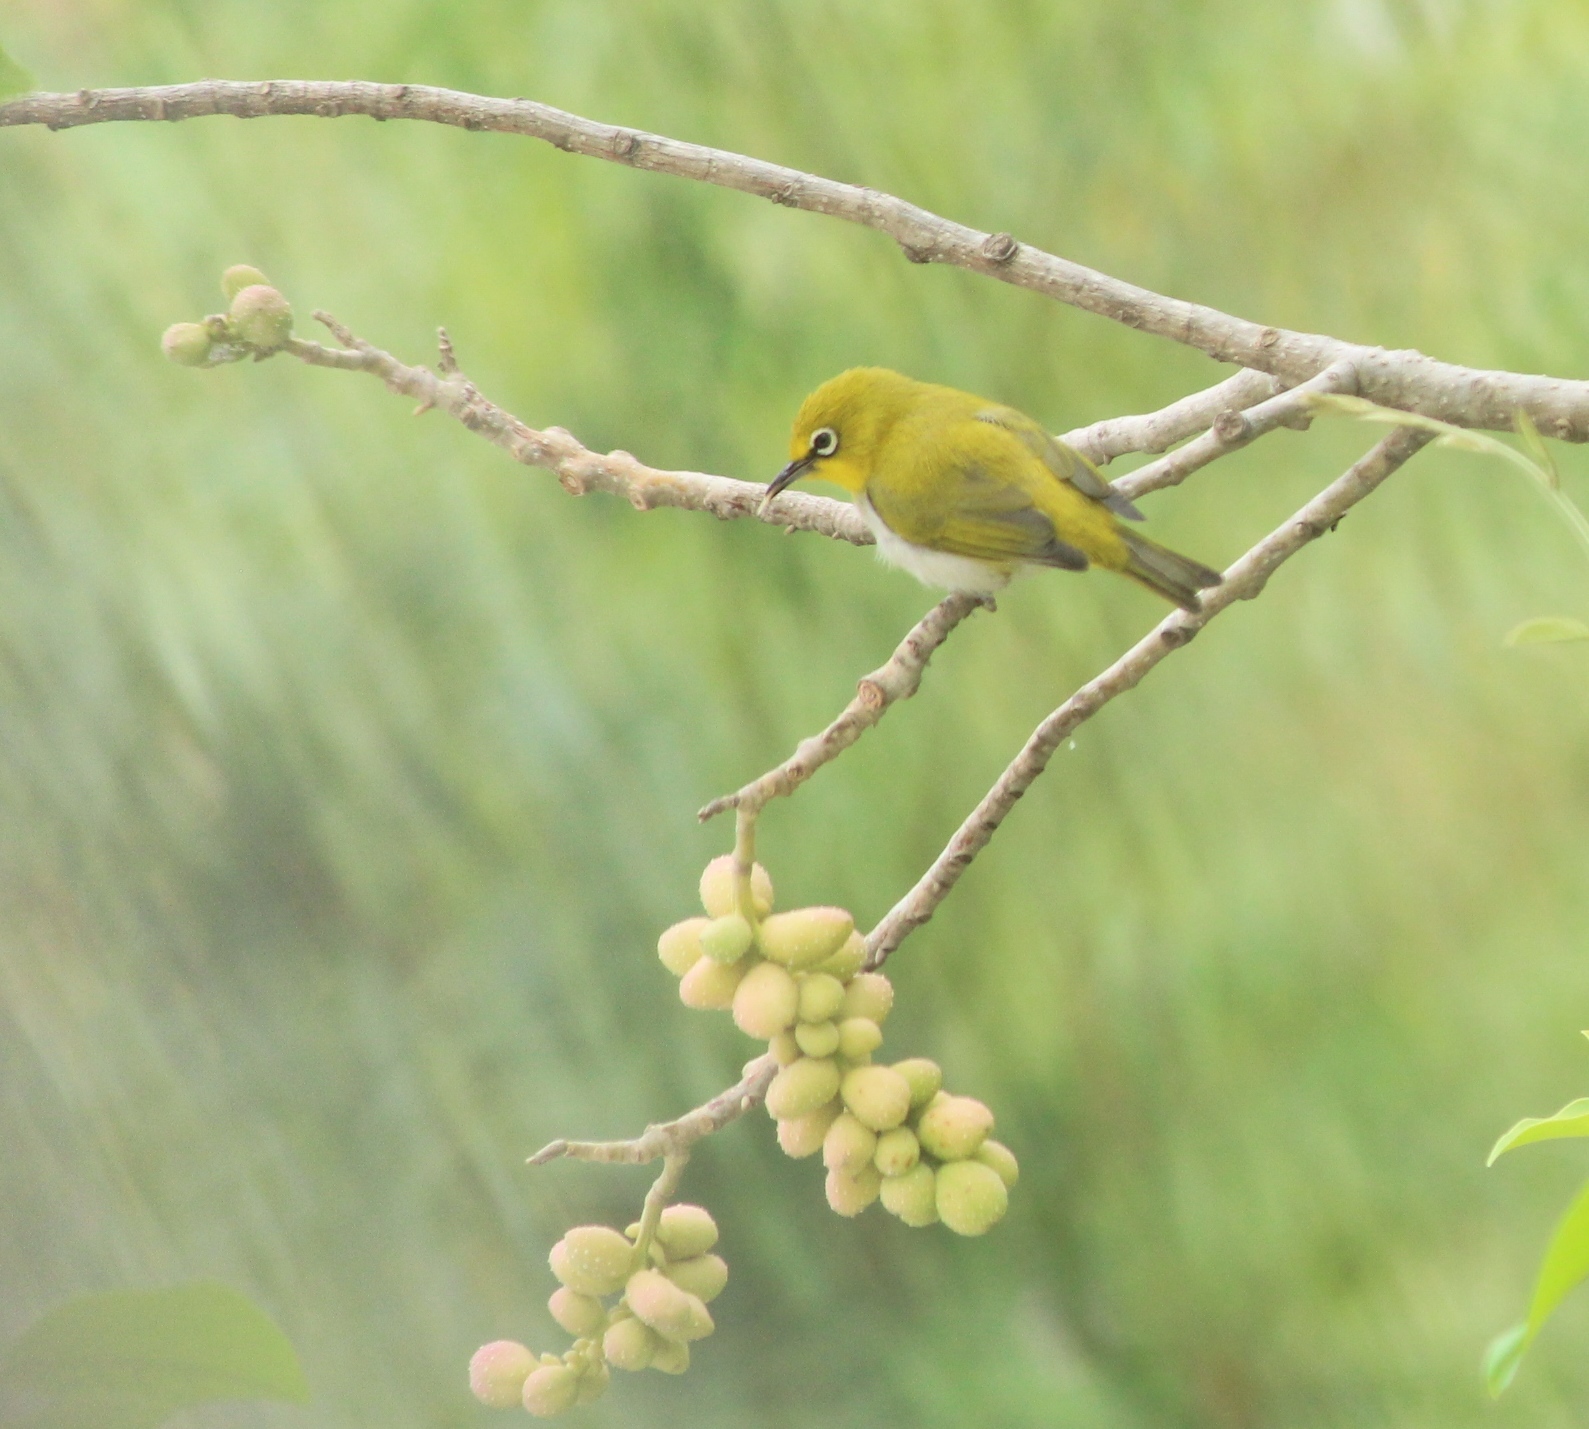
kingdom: Animalia
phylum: Chordata
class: Aves
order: Passeriformes
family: Zosteropidae
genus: Zosterops
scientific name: Zosterops palpebrosus
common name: Oriental white-eye
